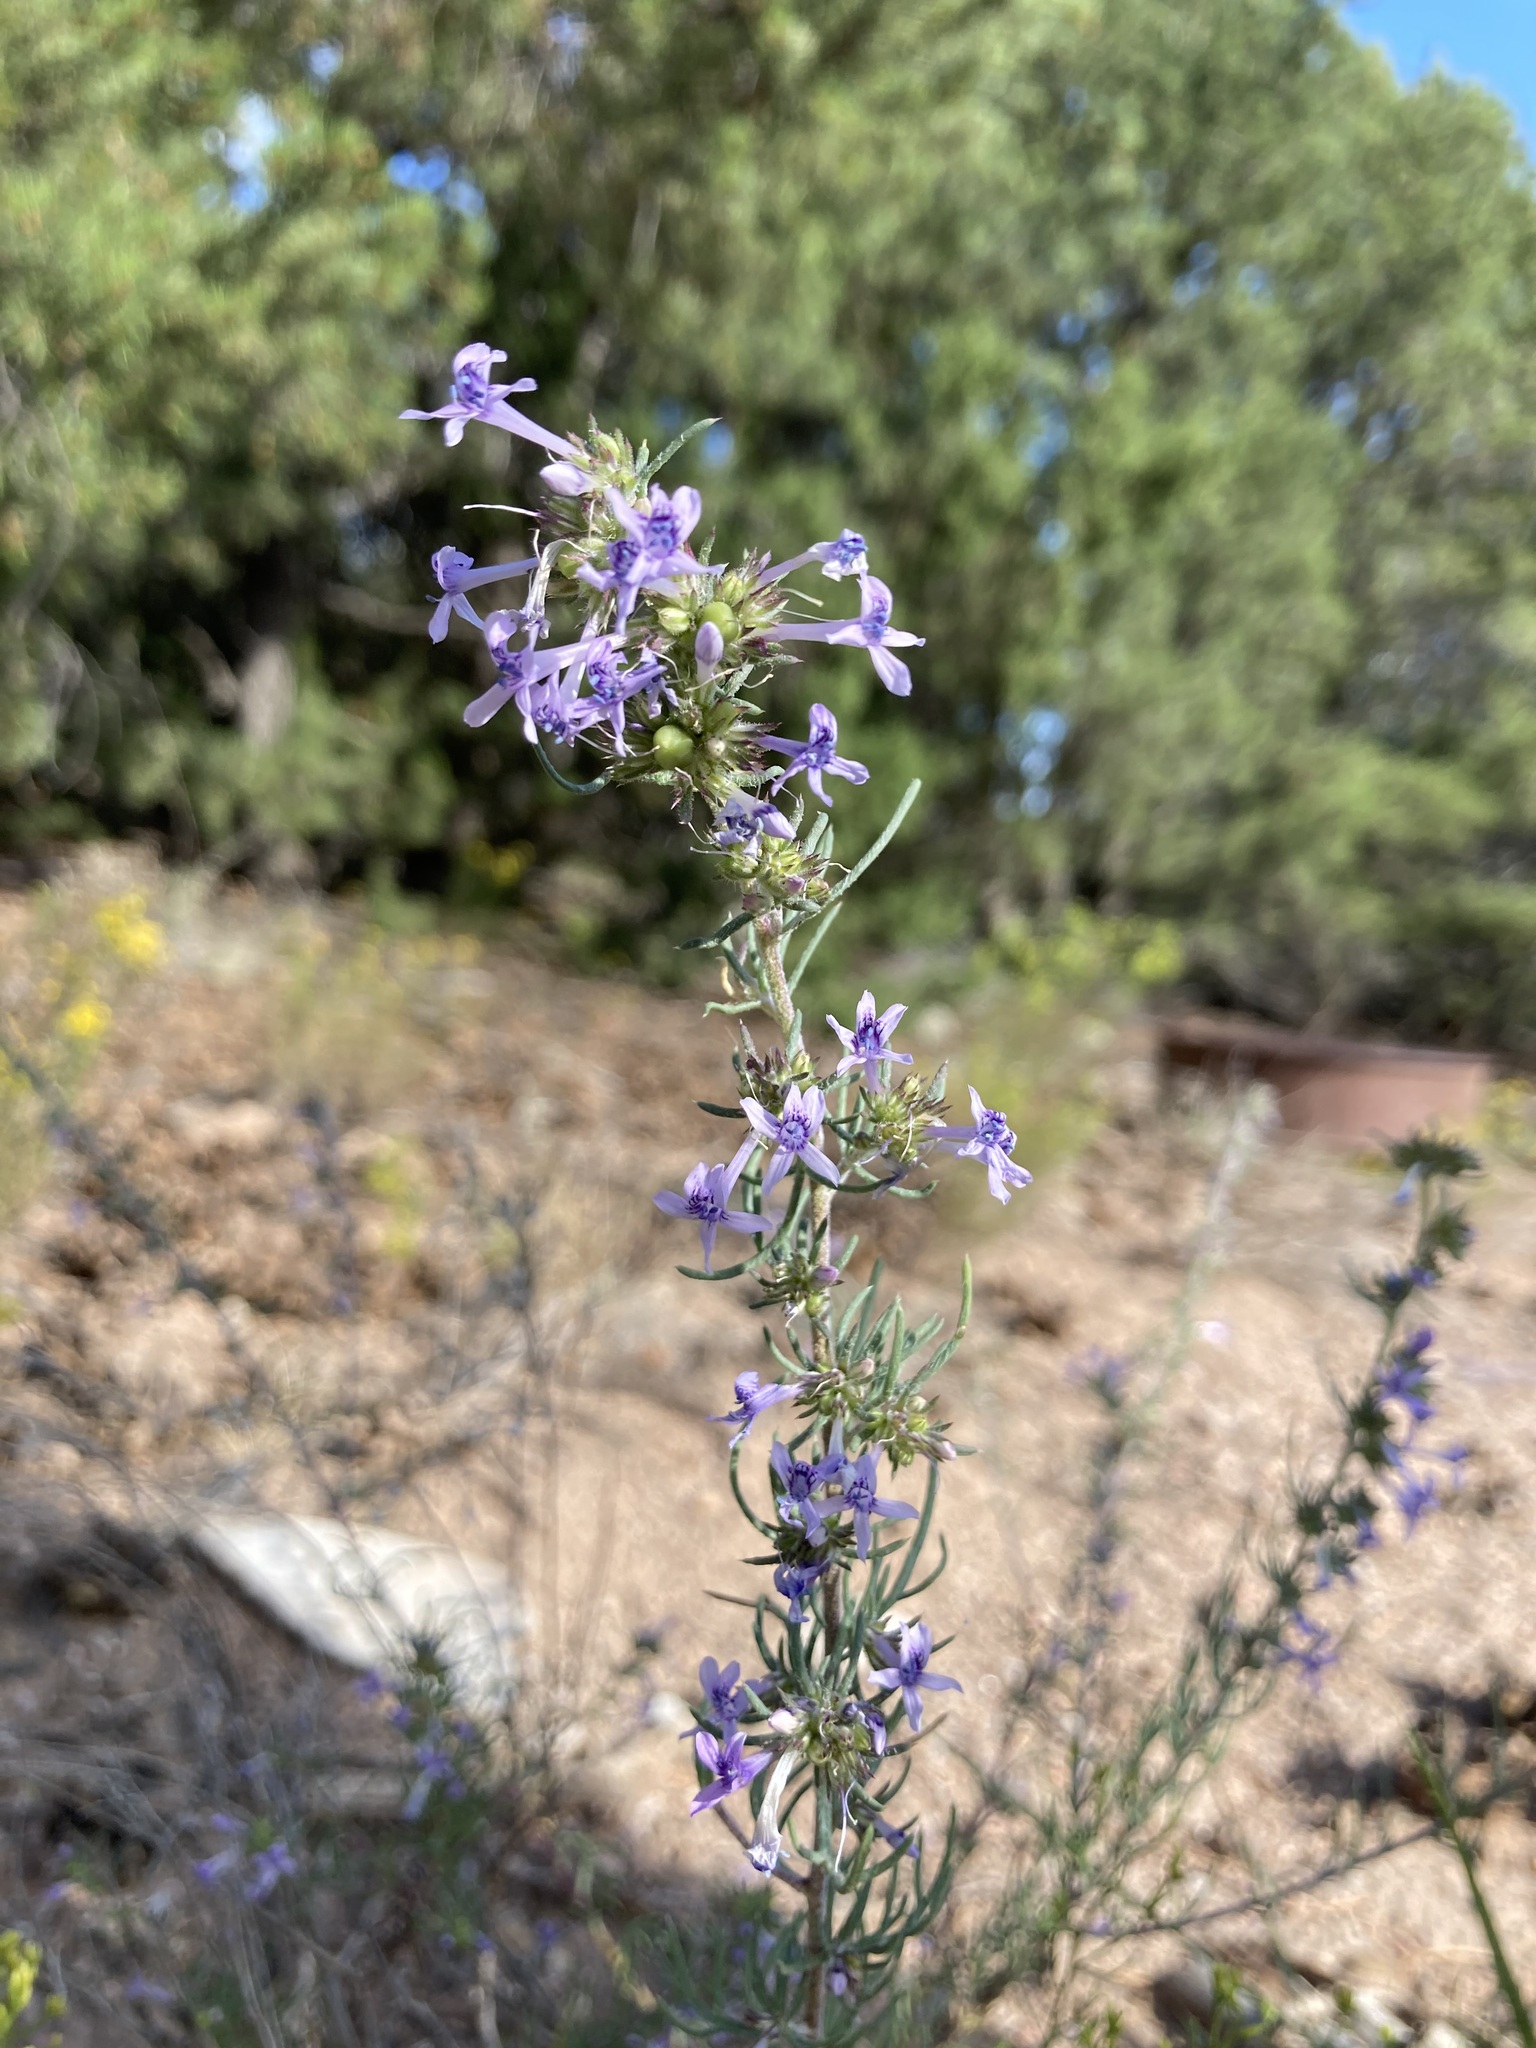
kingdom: Plantae
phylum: Tracheophyta
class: Magnoliopsida
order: Ericales
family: Polemoniaceae
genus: Ipomopsis
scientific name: Ipomopsis multiflora
